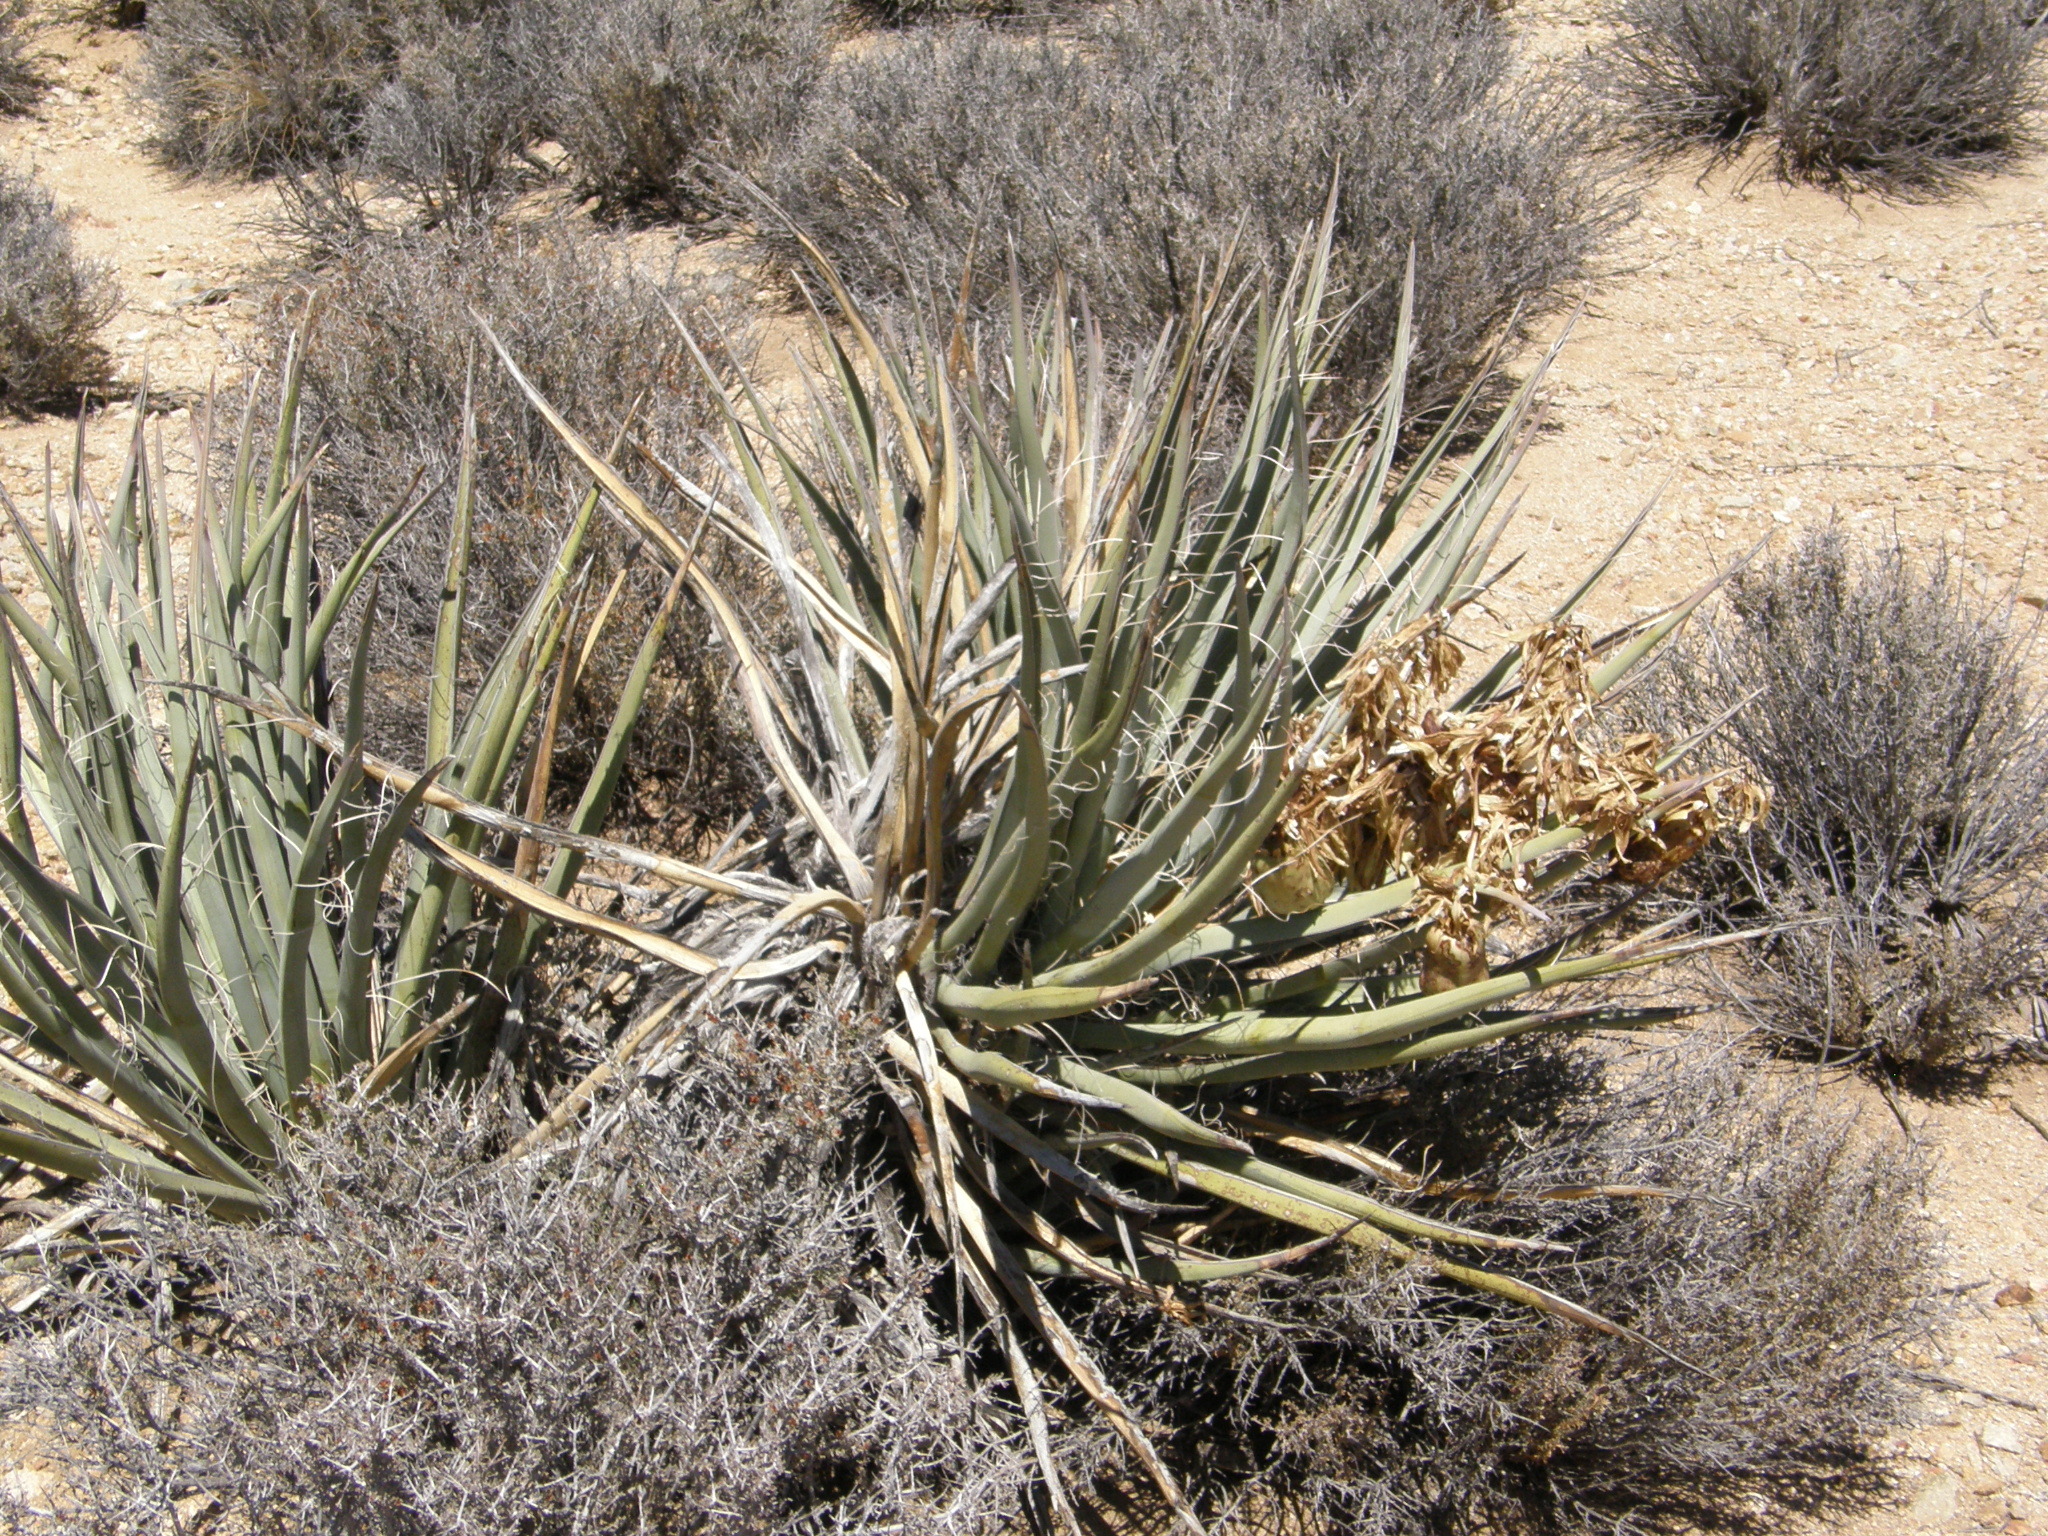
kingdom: Plantae
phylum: Tracheophyta
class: Liliopsida
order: Asparagales
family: Asparagaceae
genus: Yucca
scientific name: Yucca schidigera
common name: Mojave yucca
